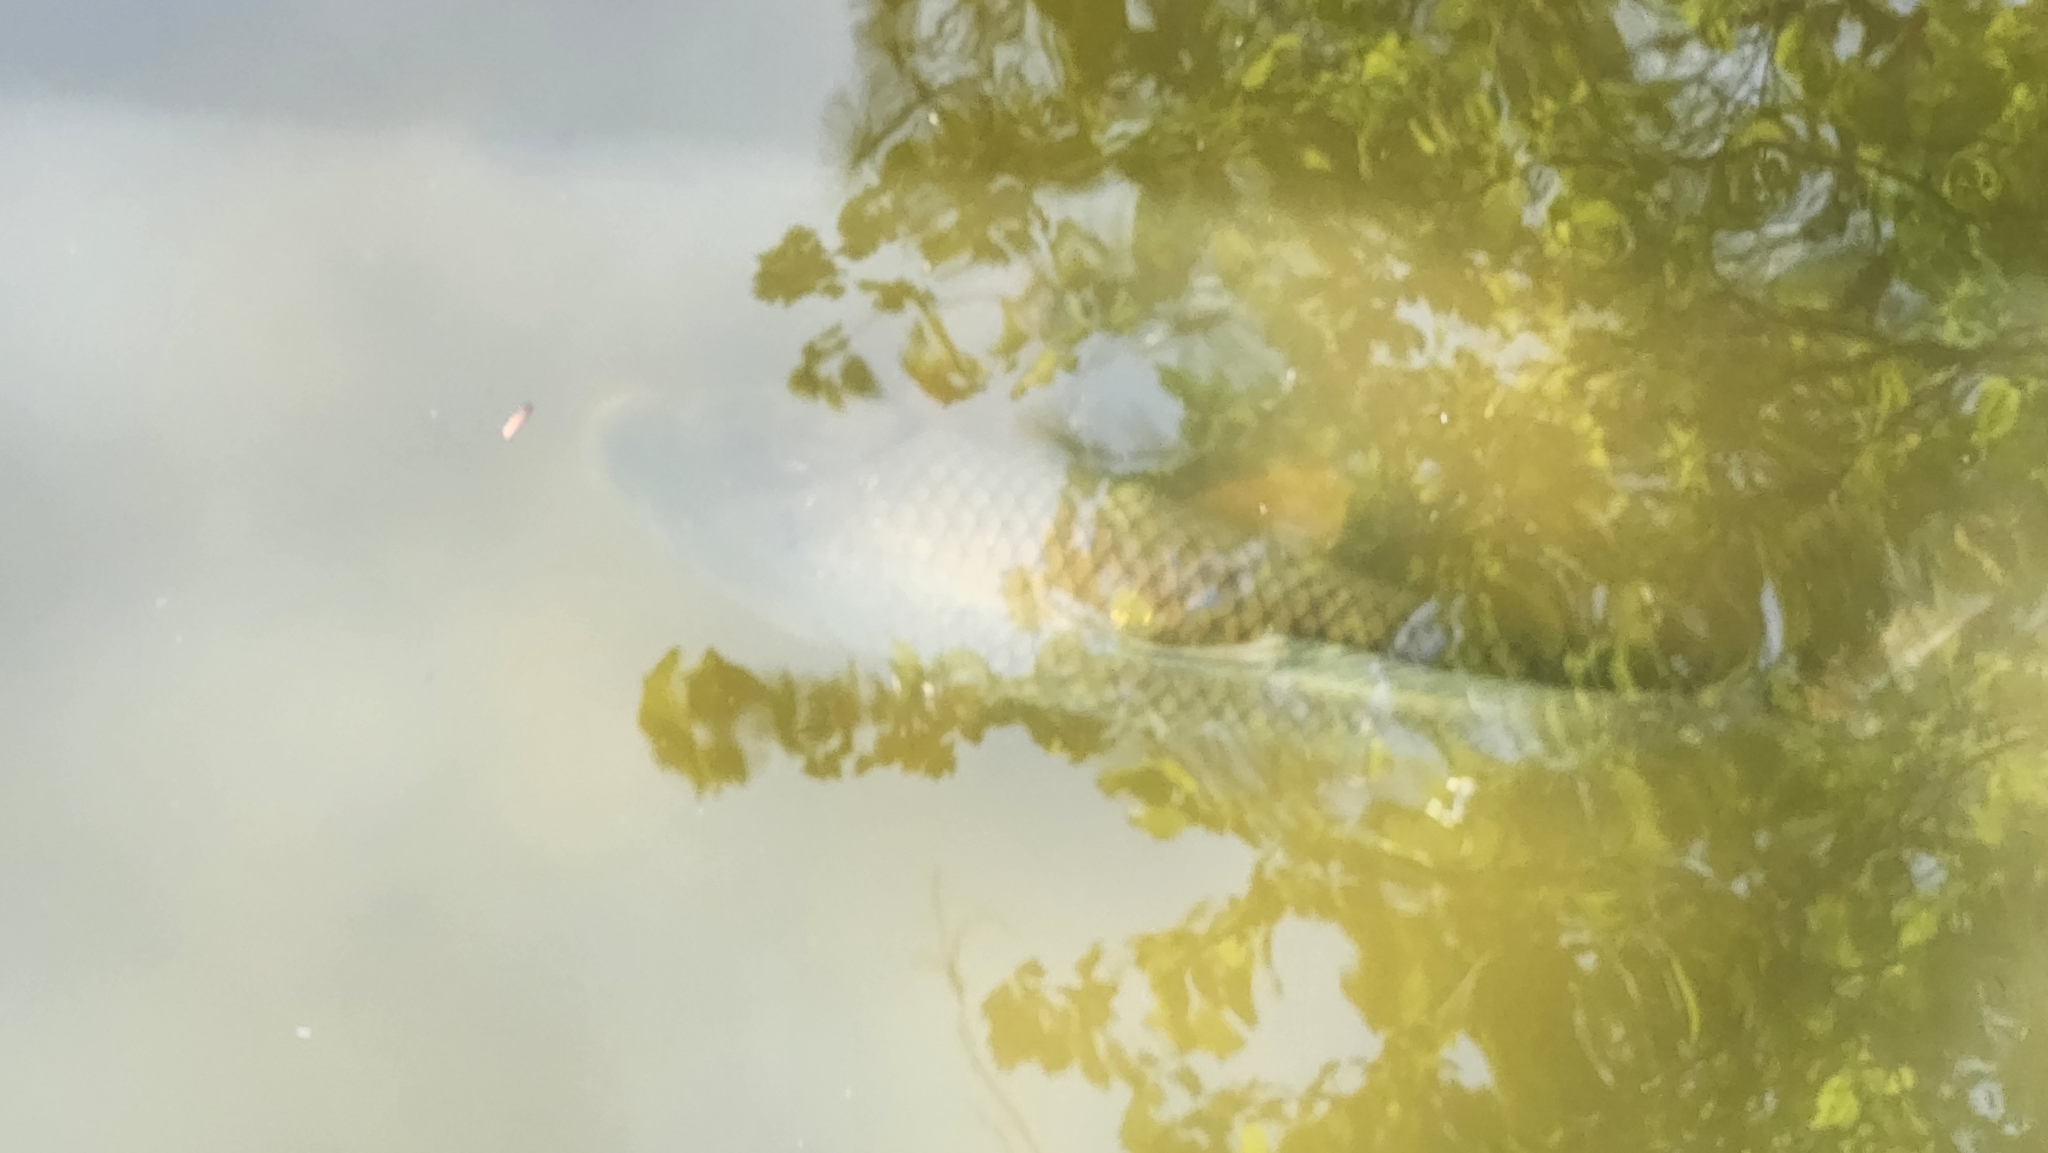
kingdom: Animalia
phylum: Chordata
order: Cypriniformes
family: Cyprinidae
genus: Cyprinus
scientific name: Cyprinus carpio
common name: Common carp
